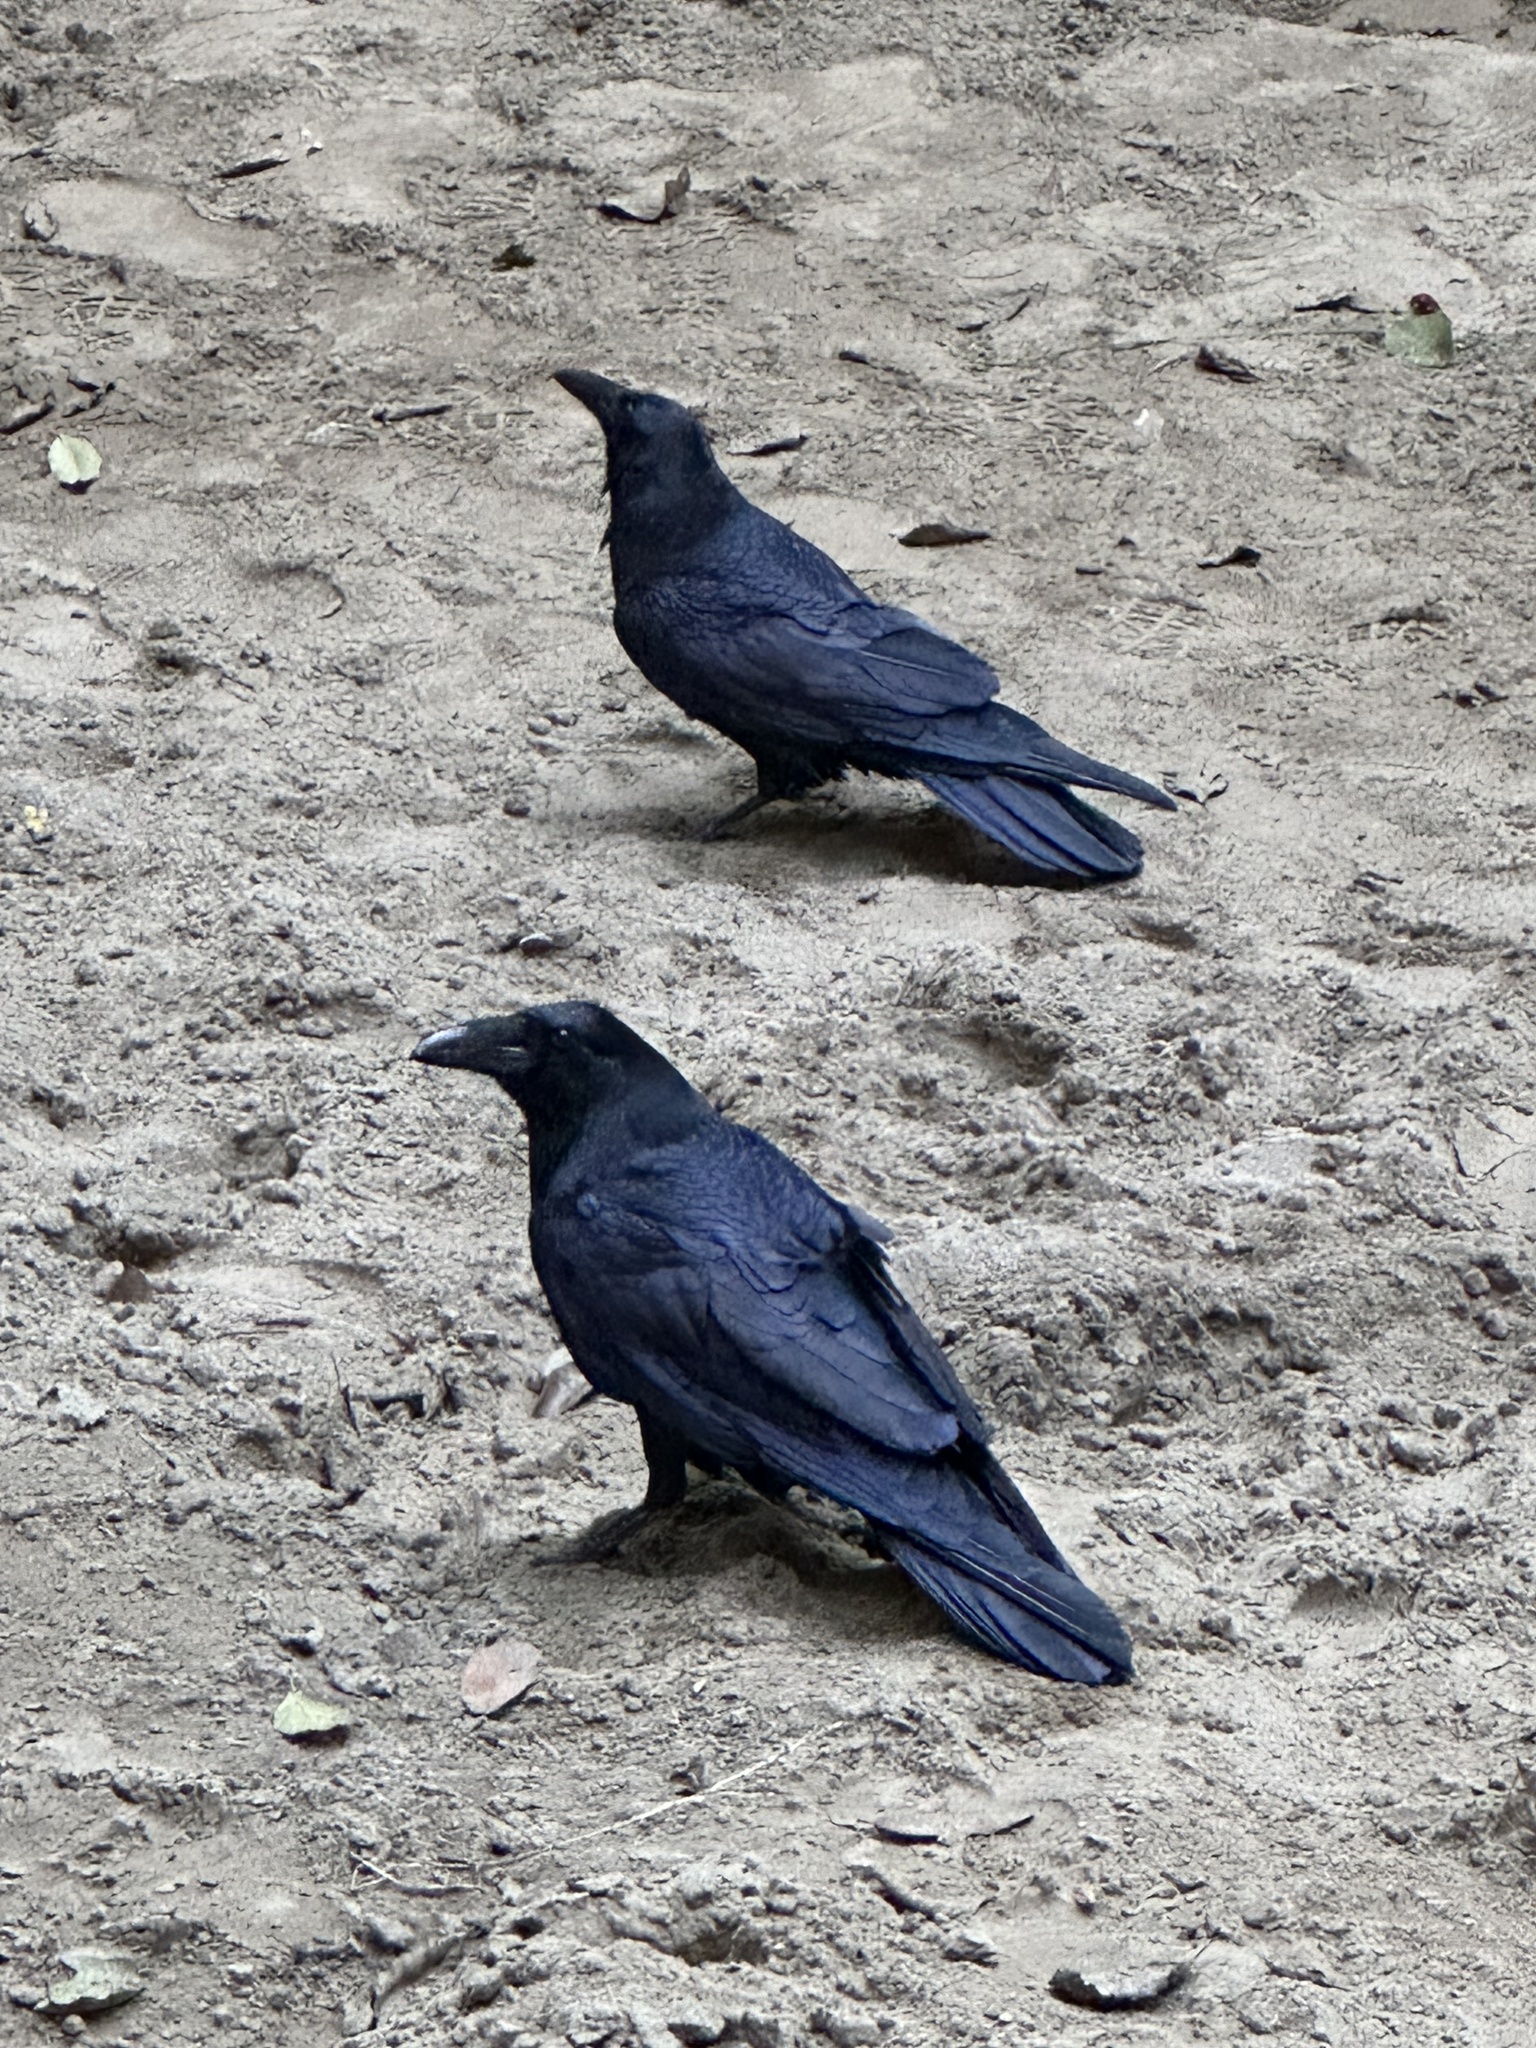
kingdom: Animalia
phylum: Chordata
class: Aves
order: Passeriformes
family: Corvidae
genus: Corvus
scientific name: Corvus corax
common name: Common raven
